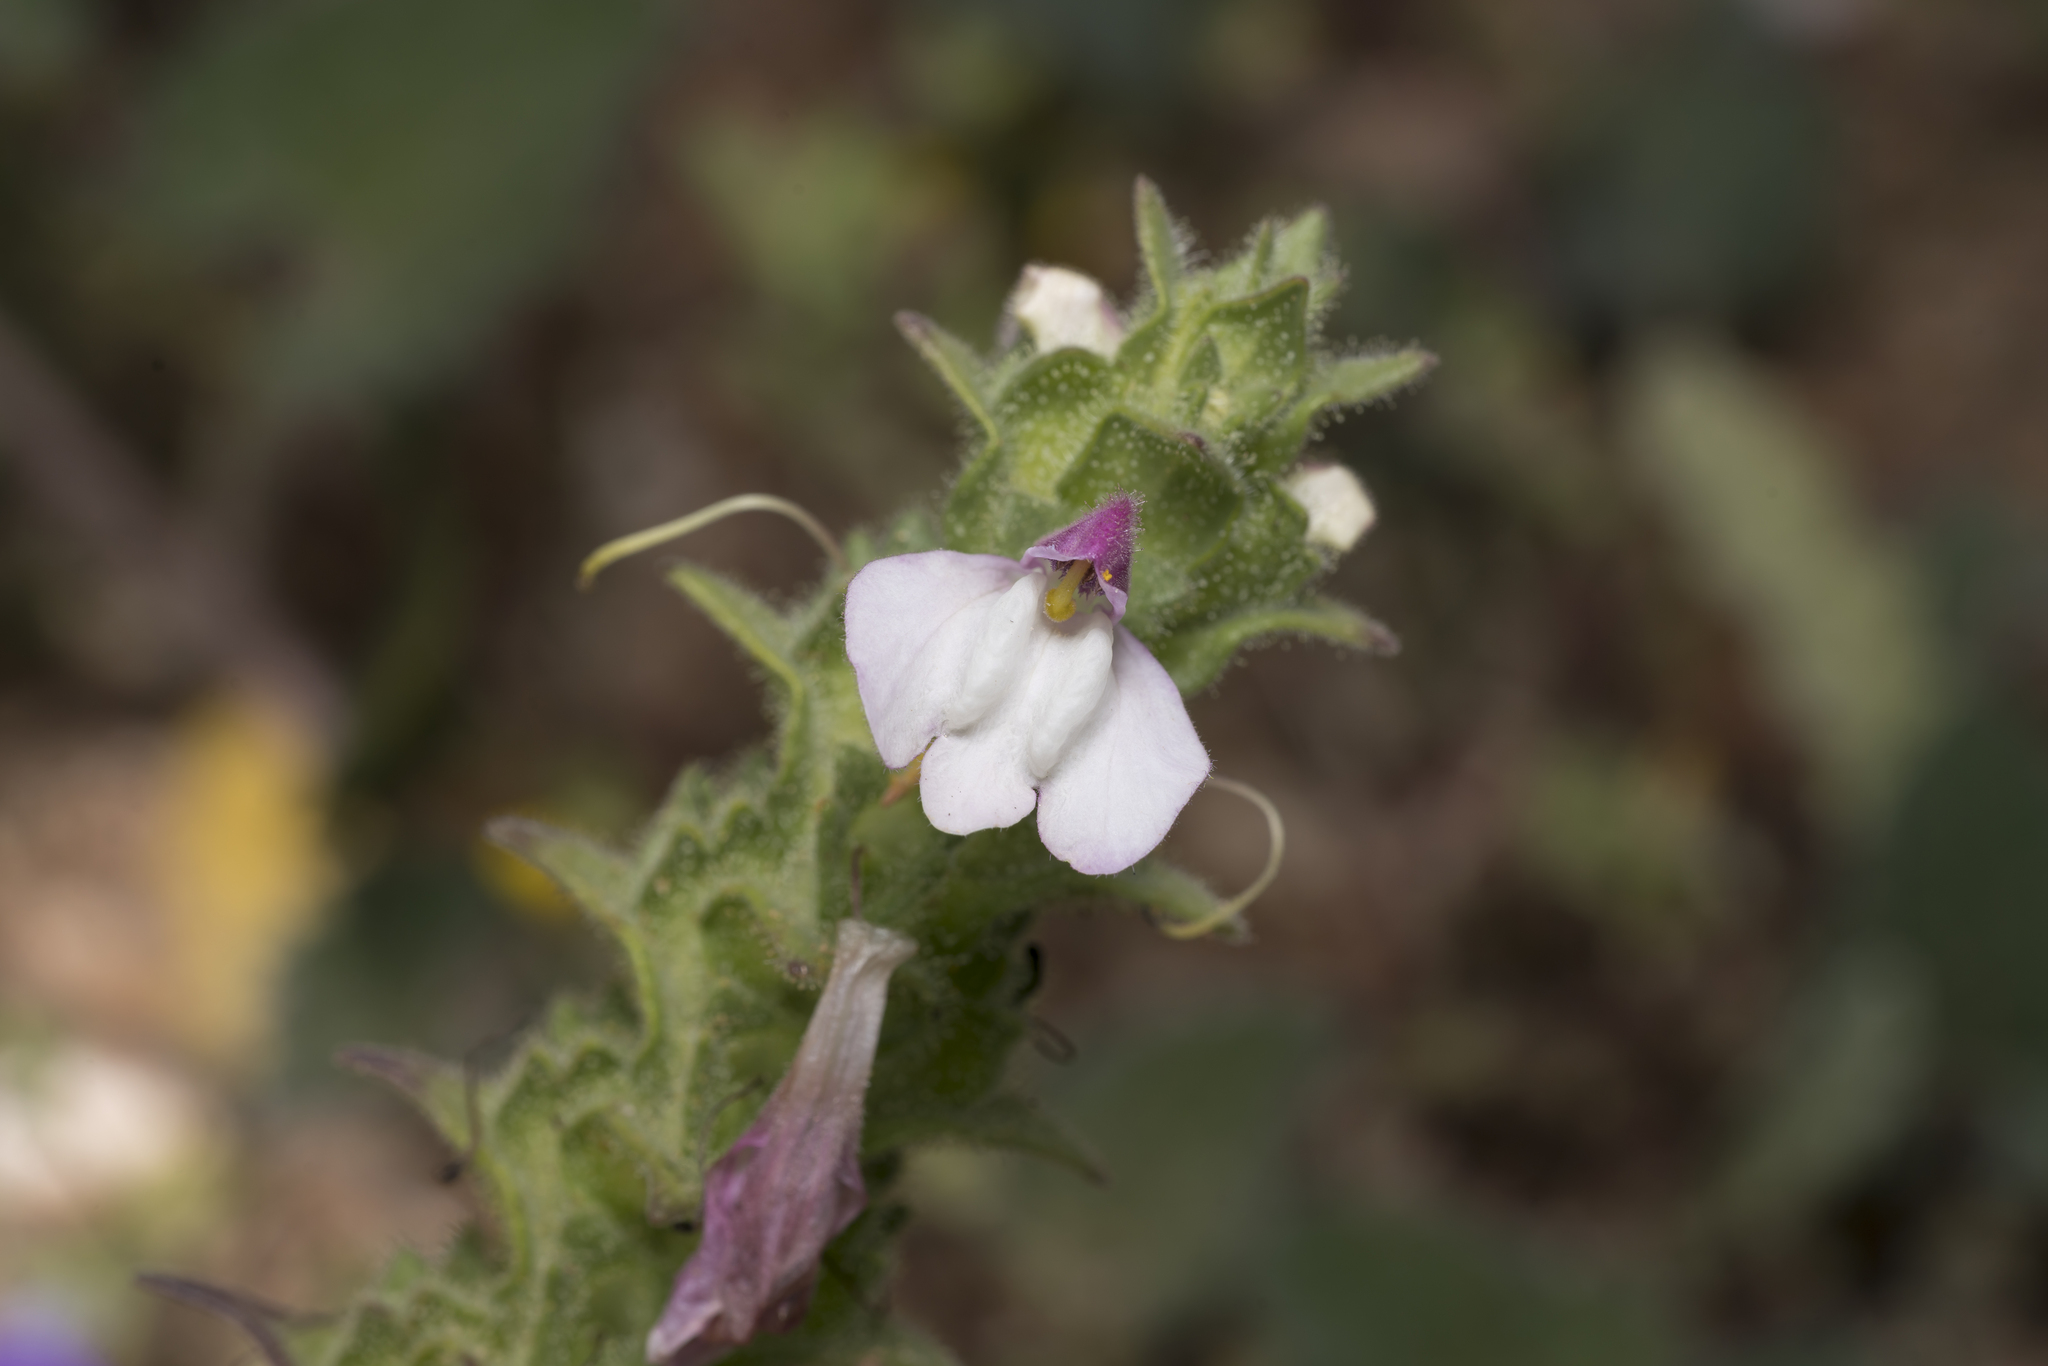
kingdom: Plantae
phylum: Tracheophyta
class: Magnoliopsida
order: Lamiales
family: Orobanchaceae
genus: Bellardia
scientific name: Bellardia trixago
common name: Mediterranean lineseed
